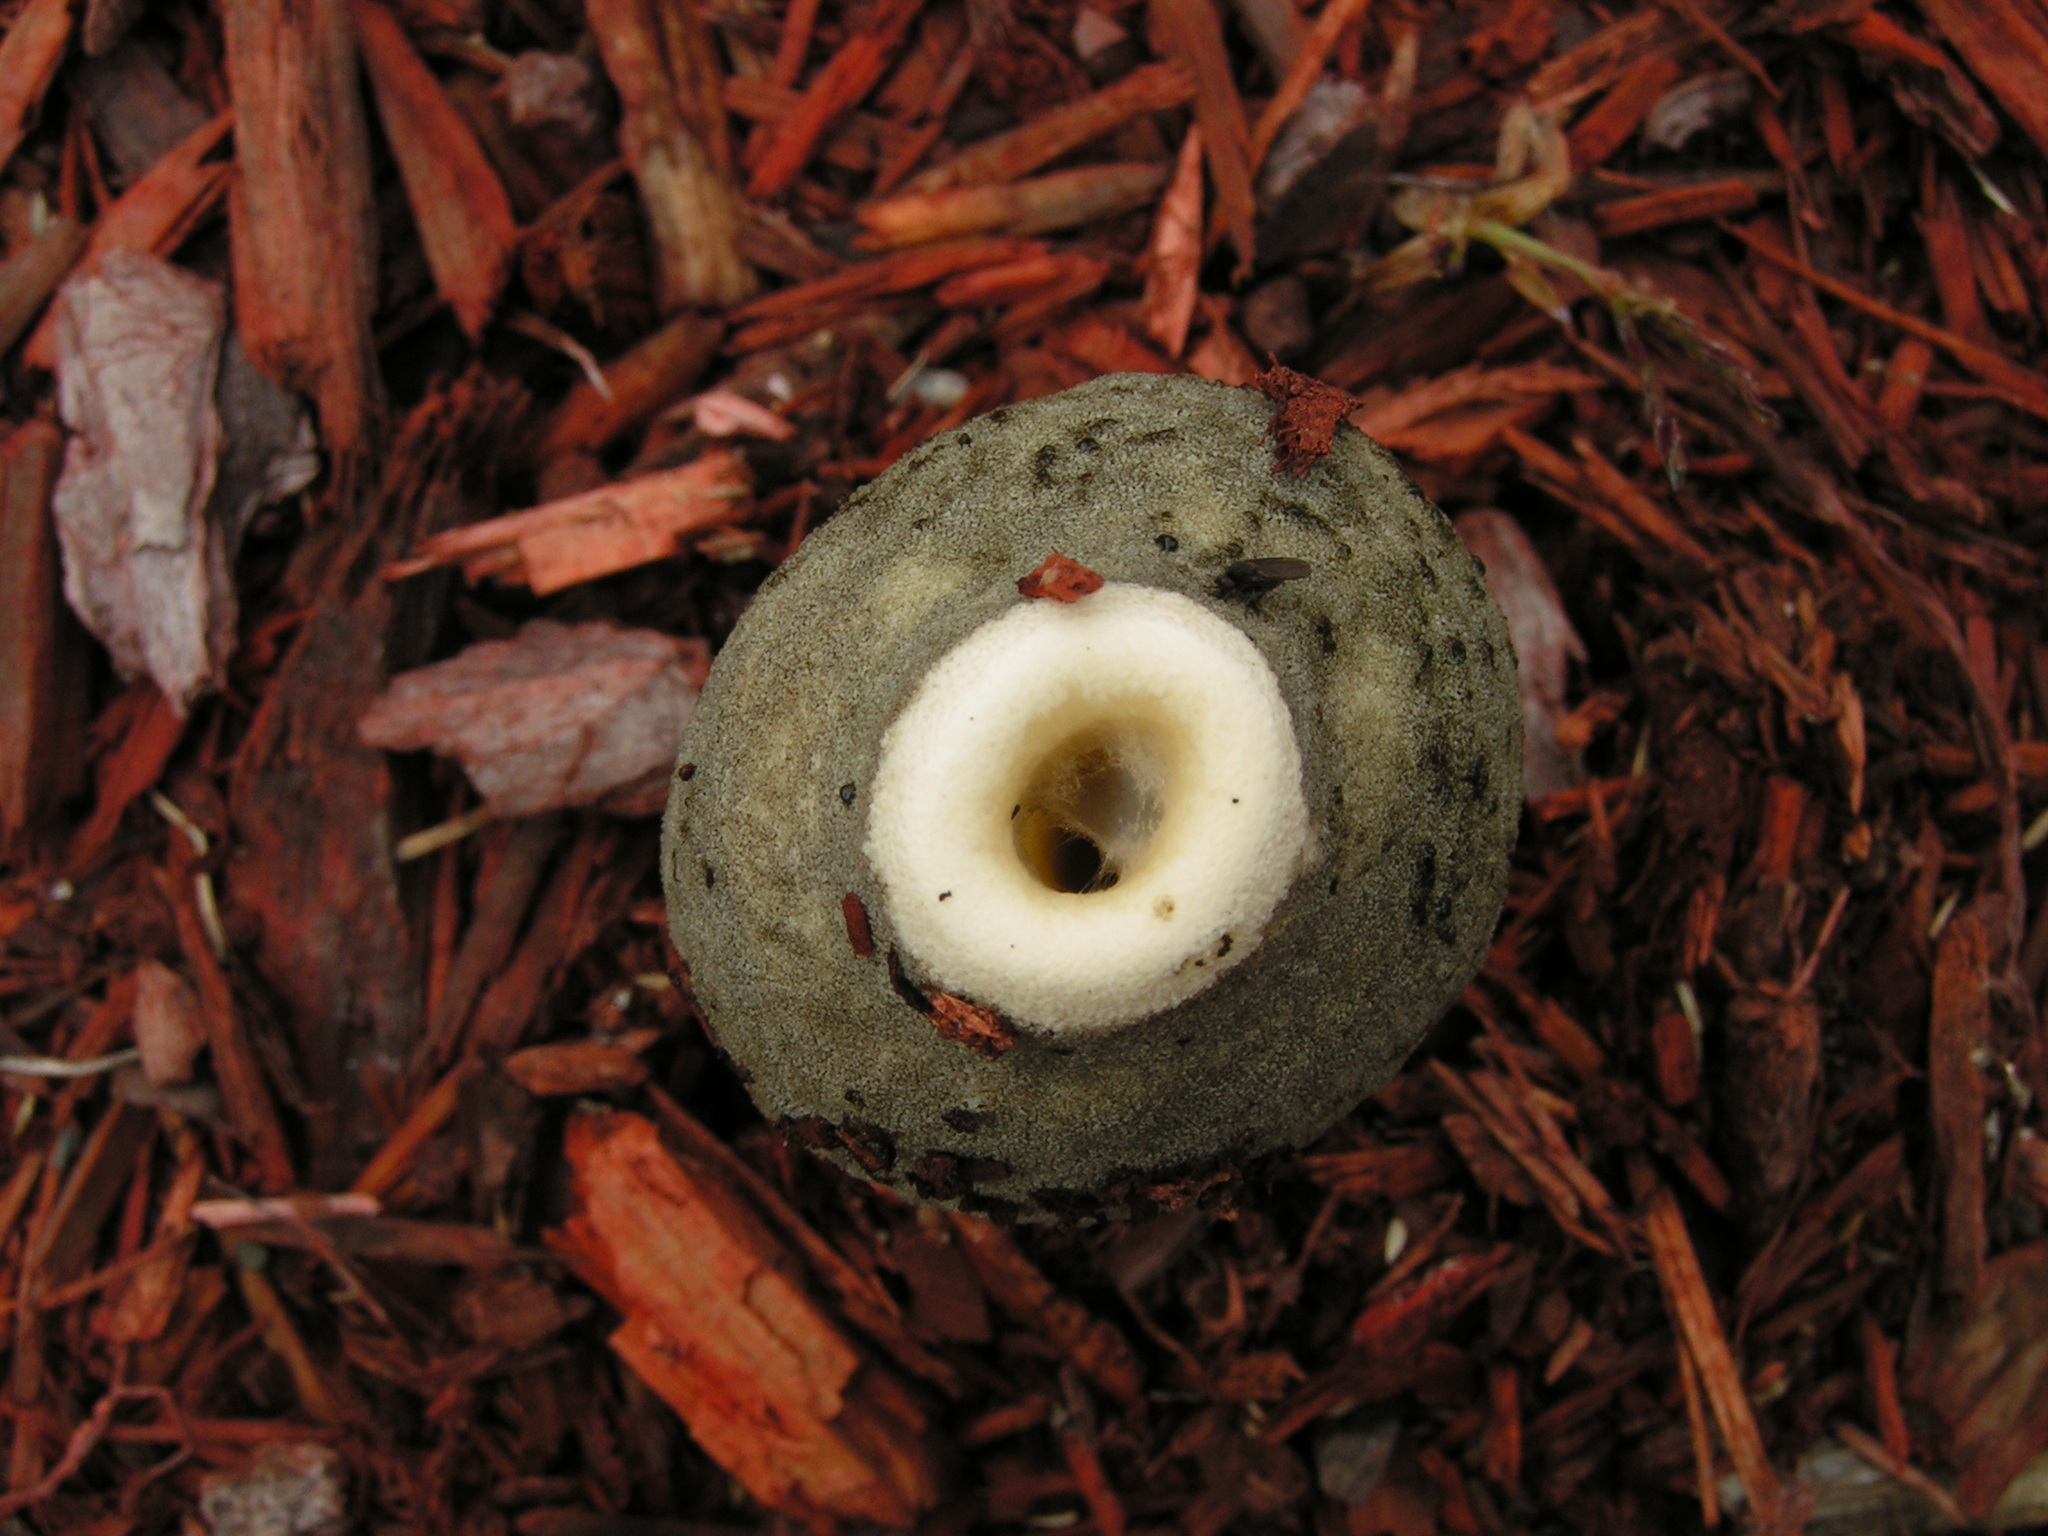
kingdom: Fungi
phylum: Basidiomycota
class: Agaricomycetes
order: Phallales
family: Phallaceae
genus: Phallus
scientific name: Phallus ravenelii
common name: Ravenel's stinkhorn
